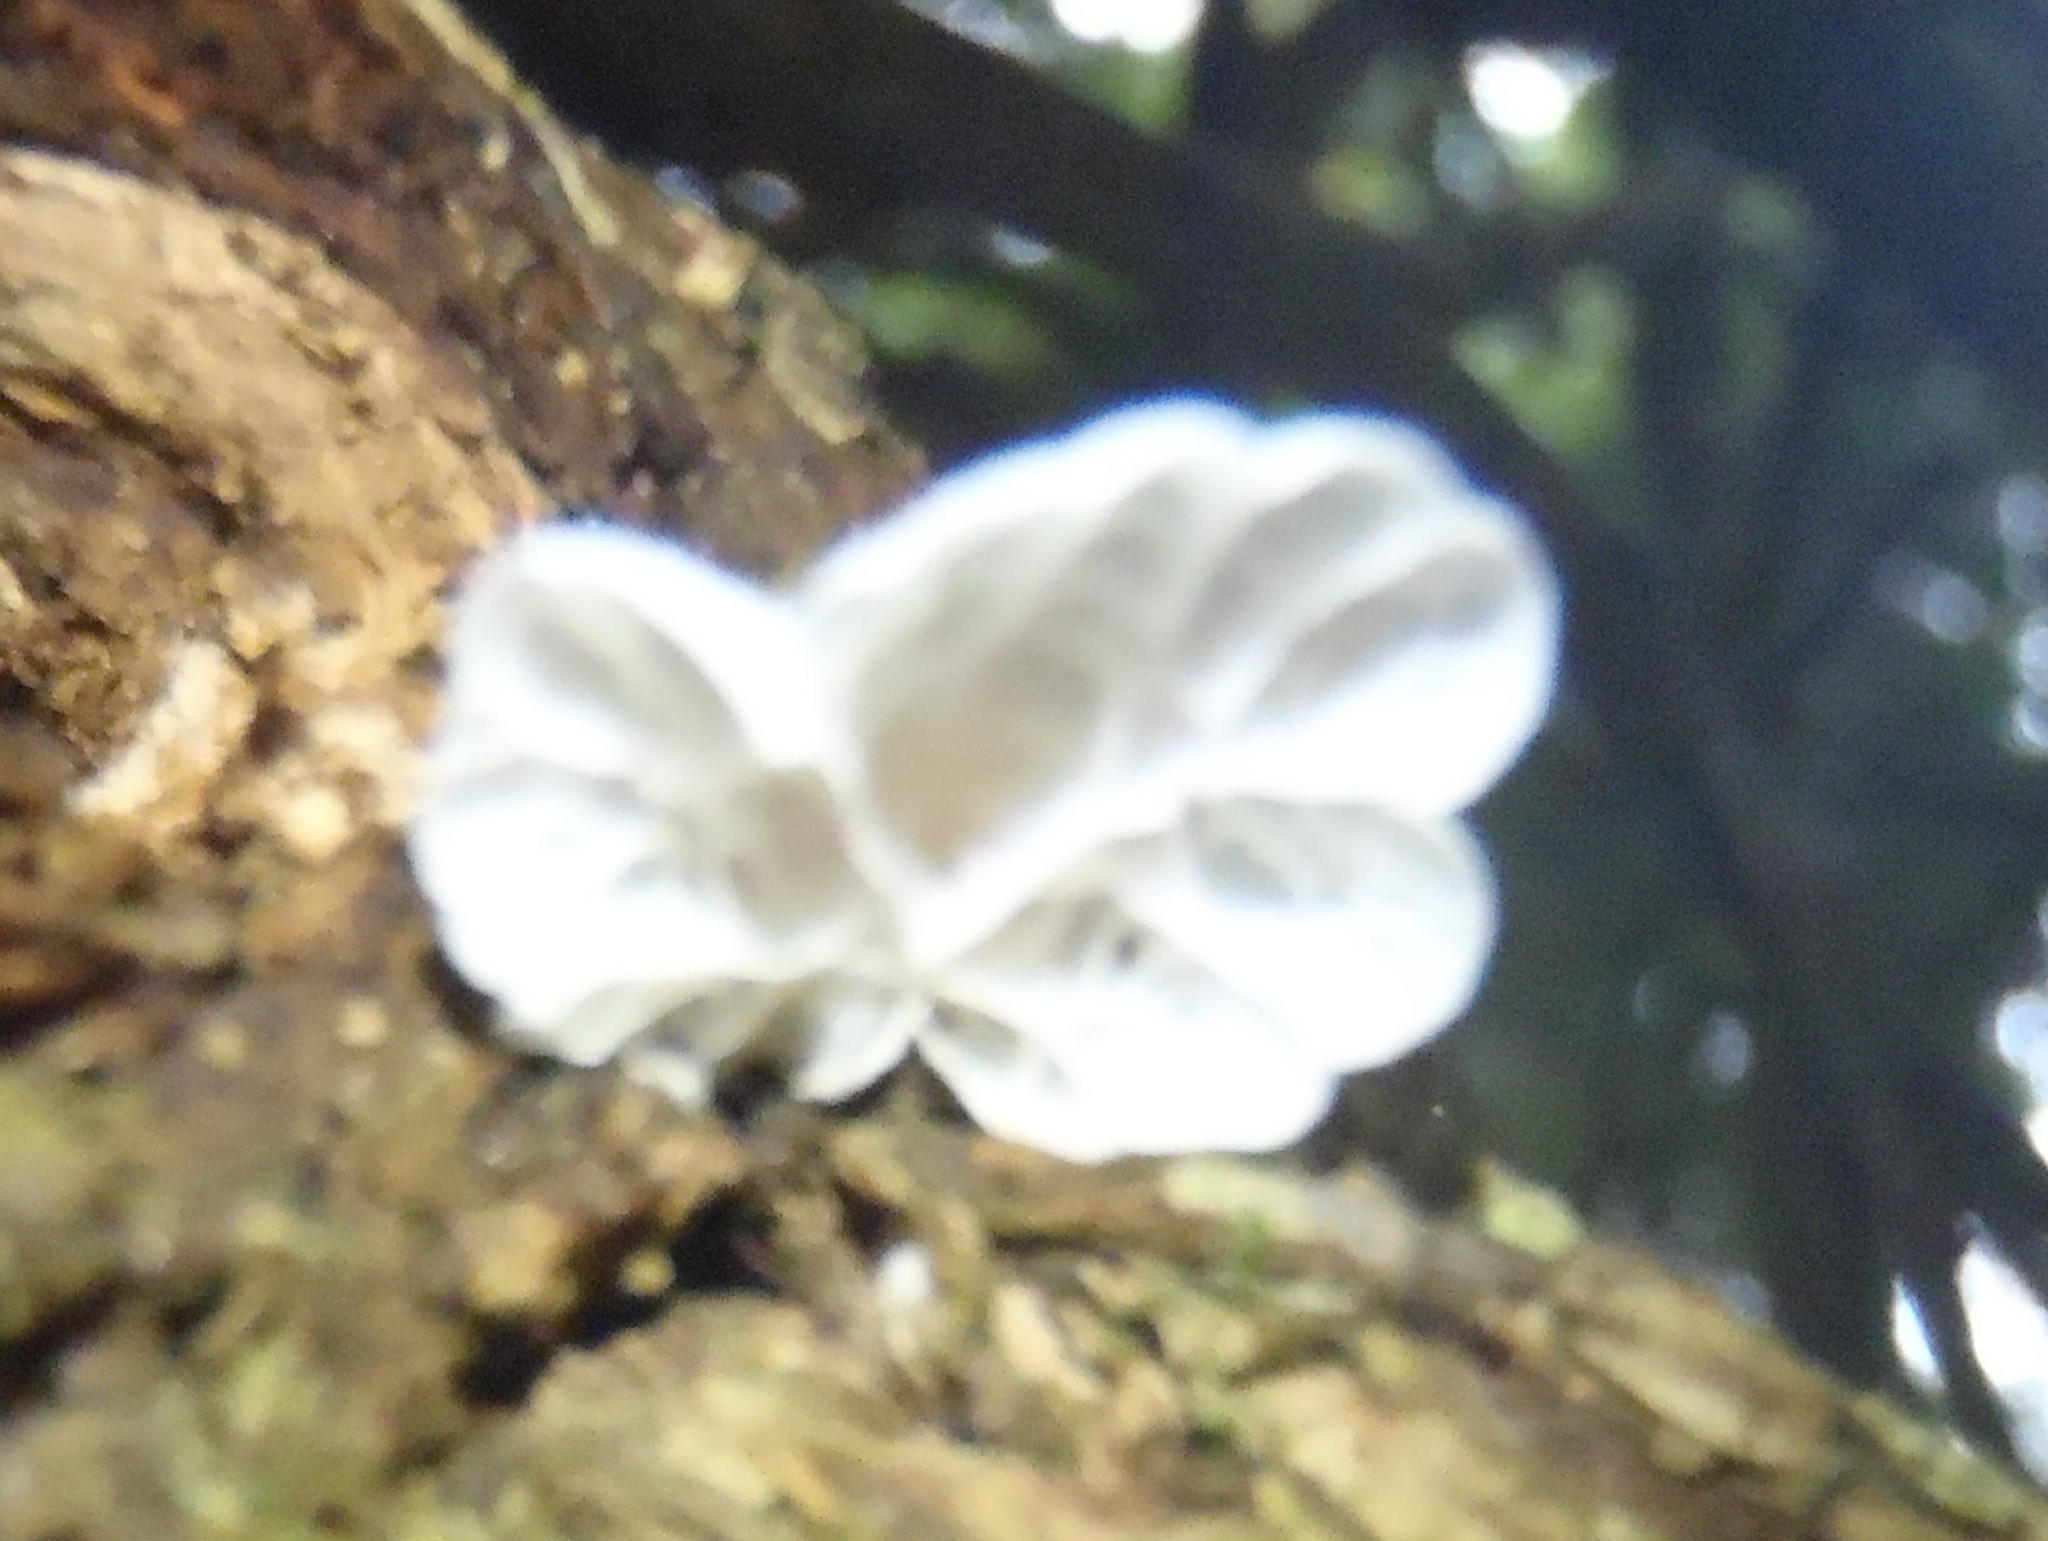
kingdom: Fungi
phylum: Basidiomycota
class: Agaricomycetes
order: Agaricales
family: Marasmiaceae
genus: Campanella
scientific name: Campanella capensis
